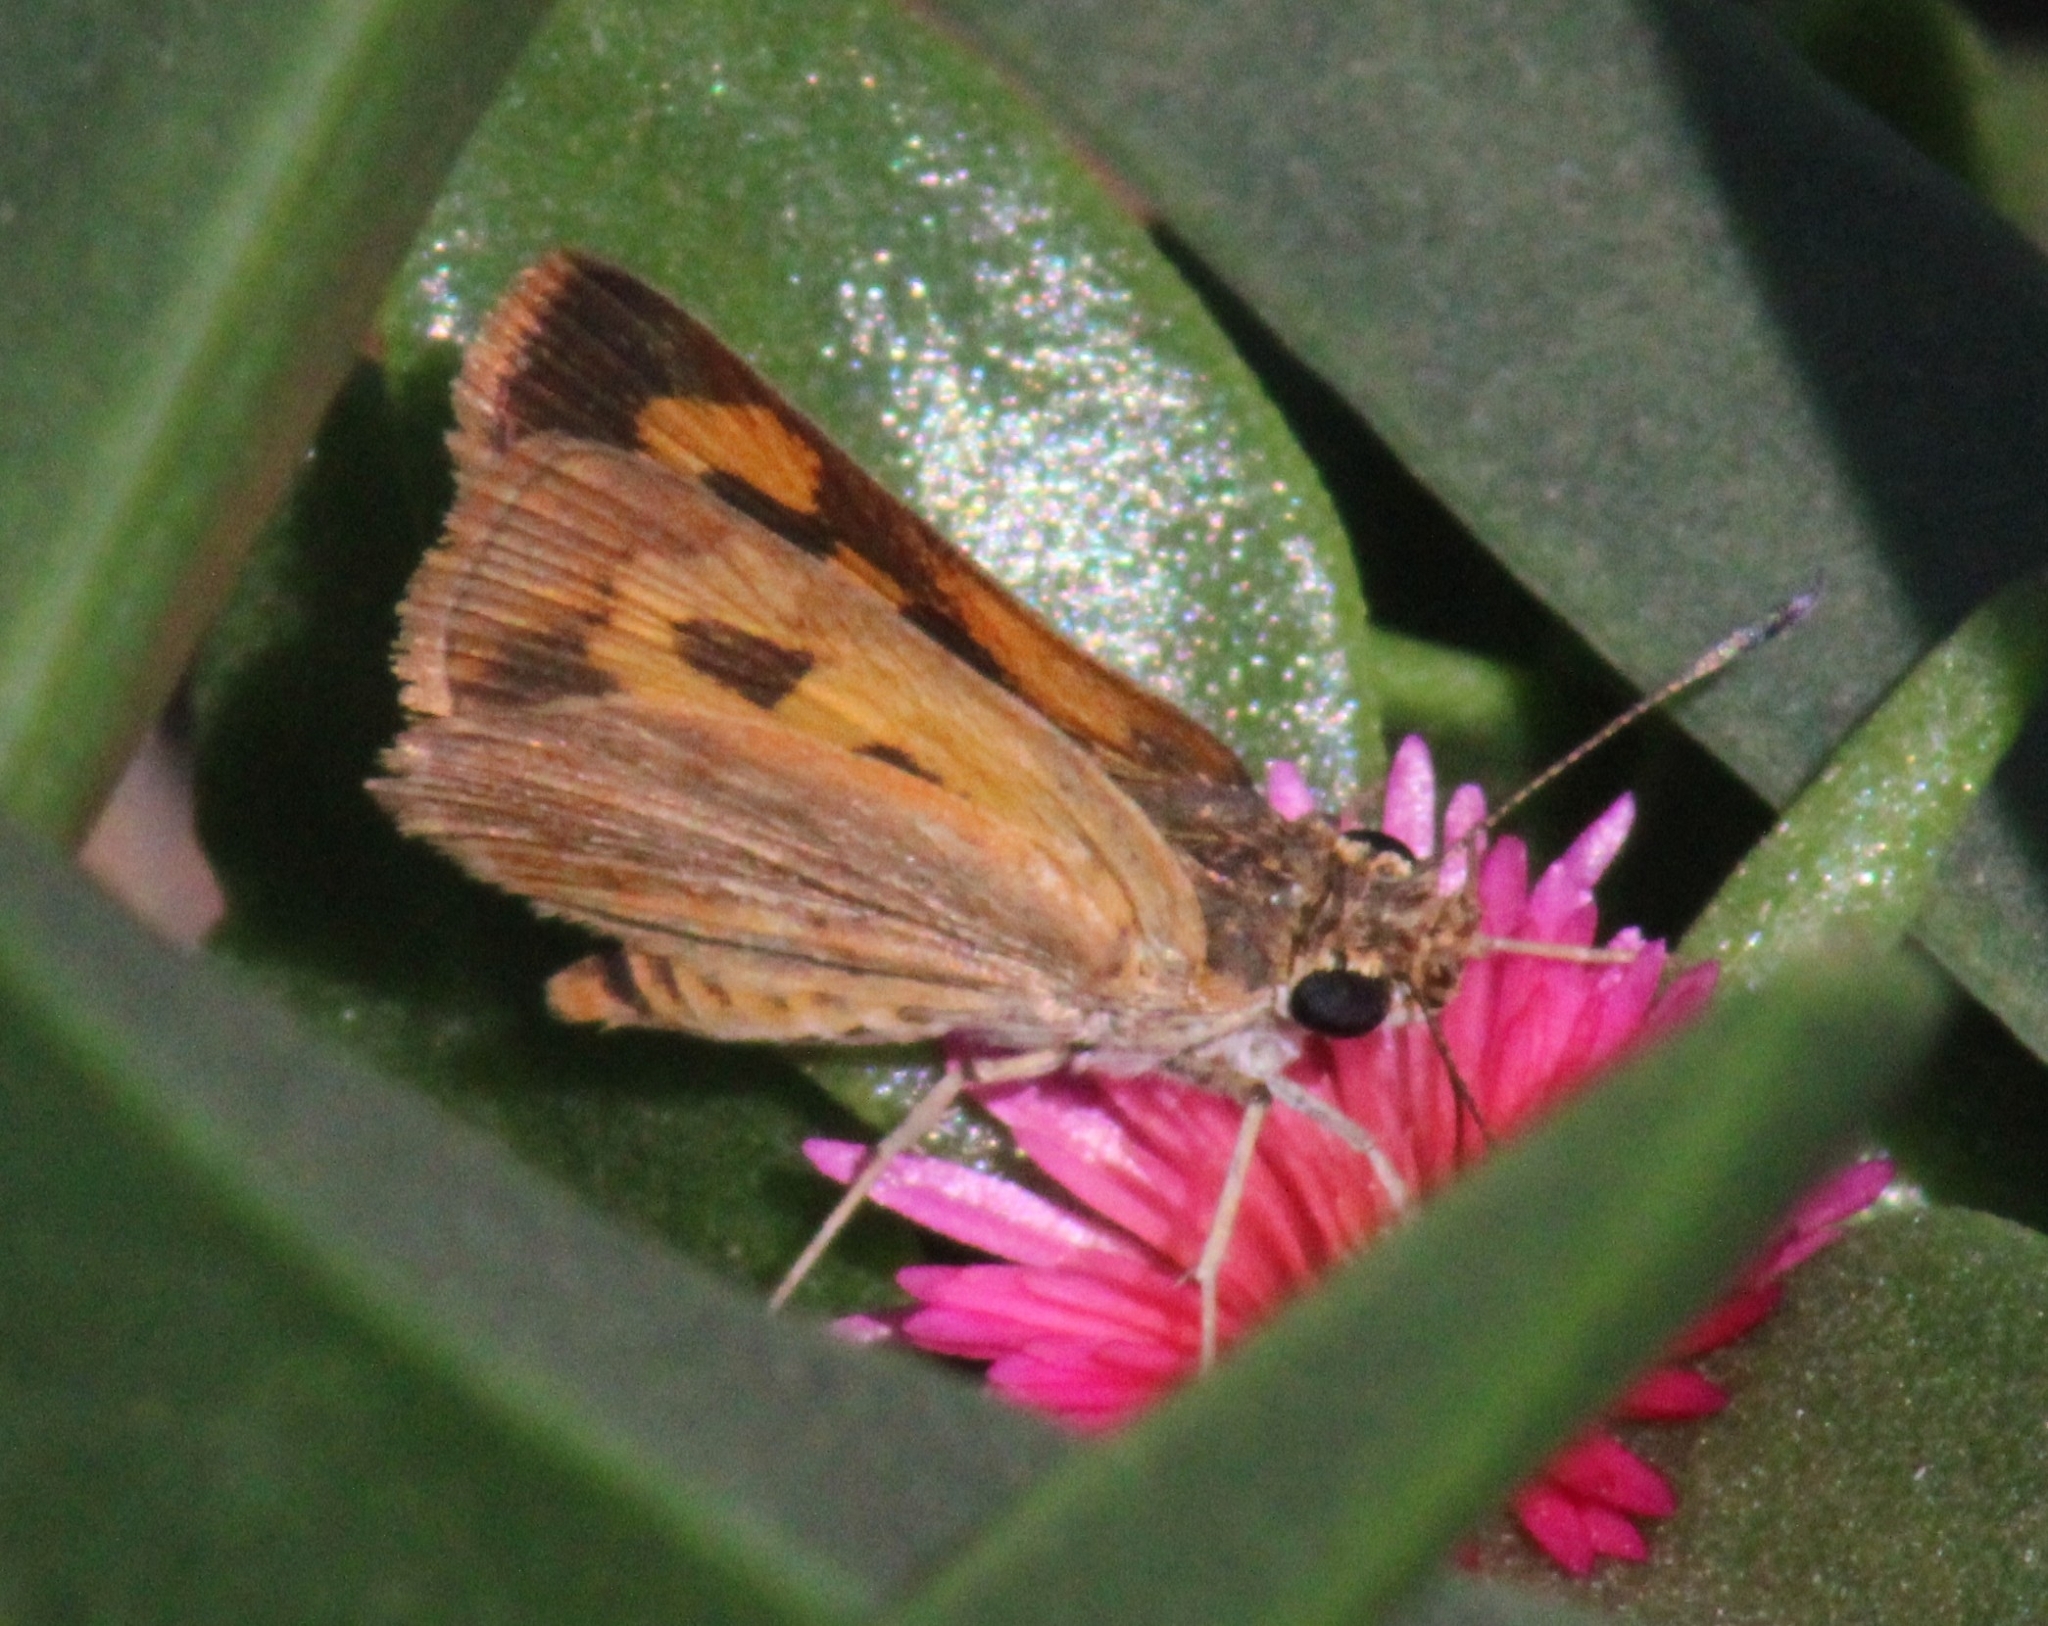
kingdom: Animalia
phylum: Arthropoda
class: Insecta
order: Lepidoptera
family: Hesperiidae
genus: Acada
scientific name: Acada biseriatus
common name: Axehead orange
